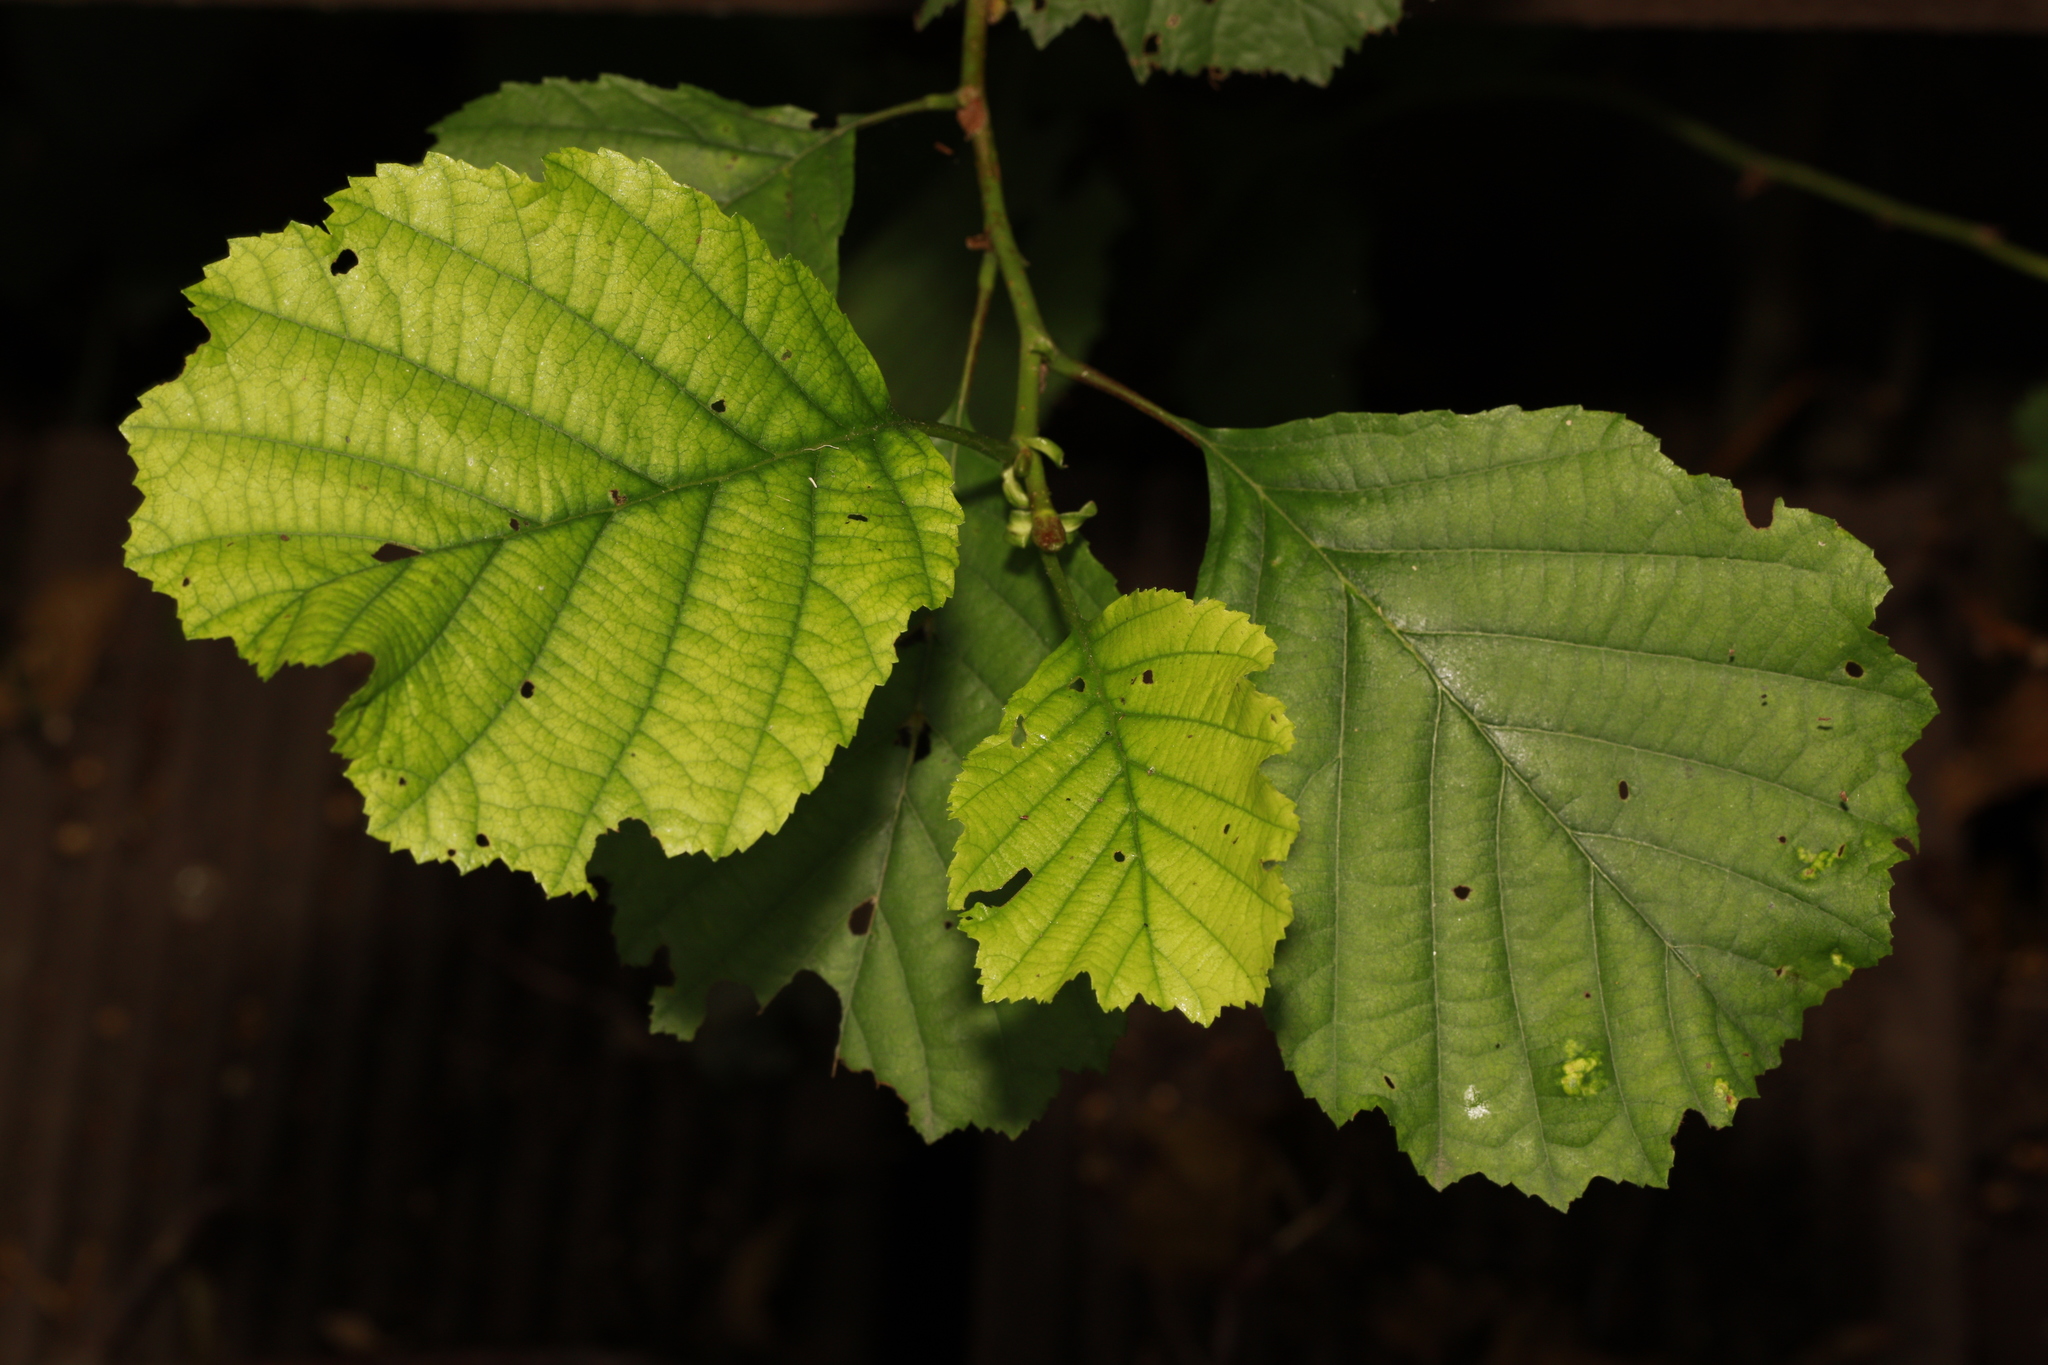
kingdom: Plantae
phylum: Tracheophyta
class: Magnoliopsida
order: Fagales
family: Betulaceae
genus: Alnus
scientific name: Alnus glutinosa
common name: Black alder
